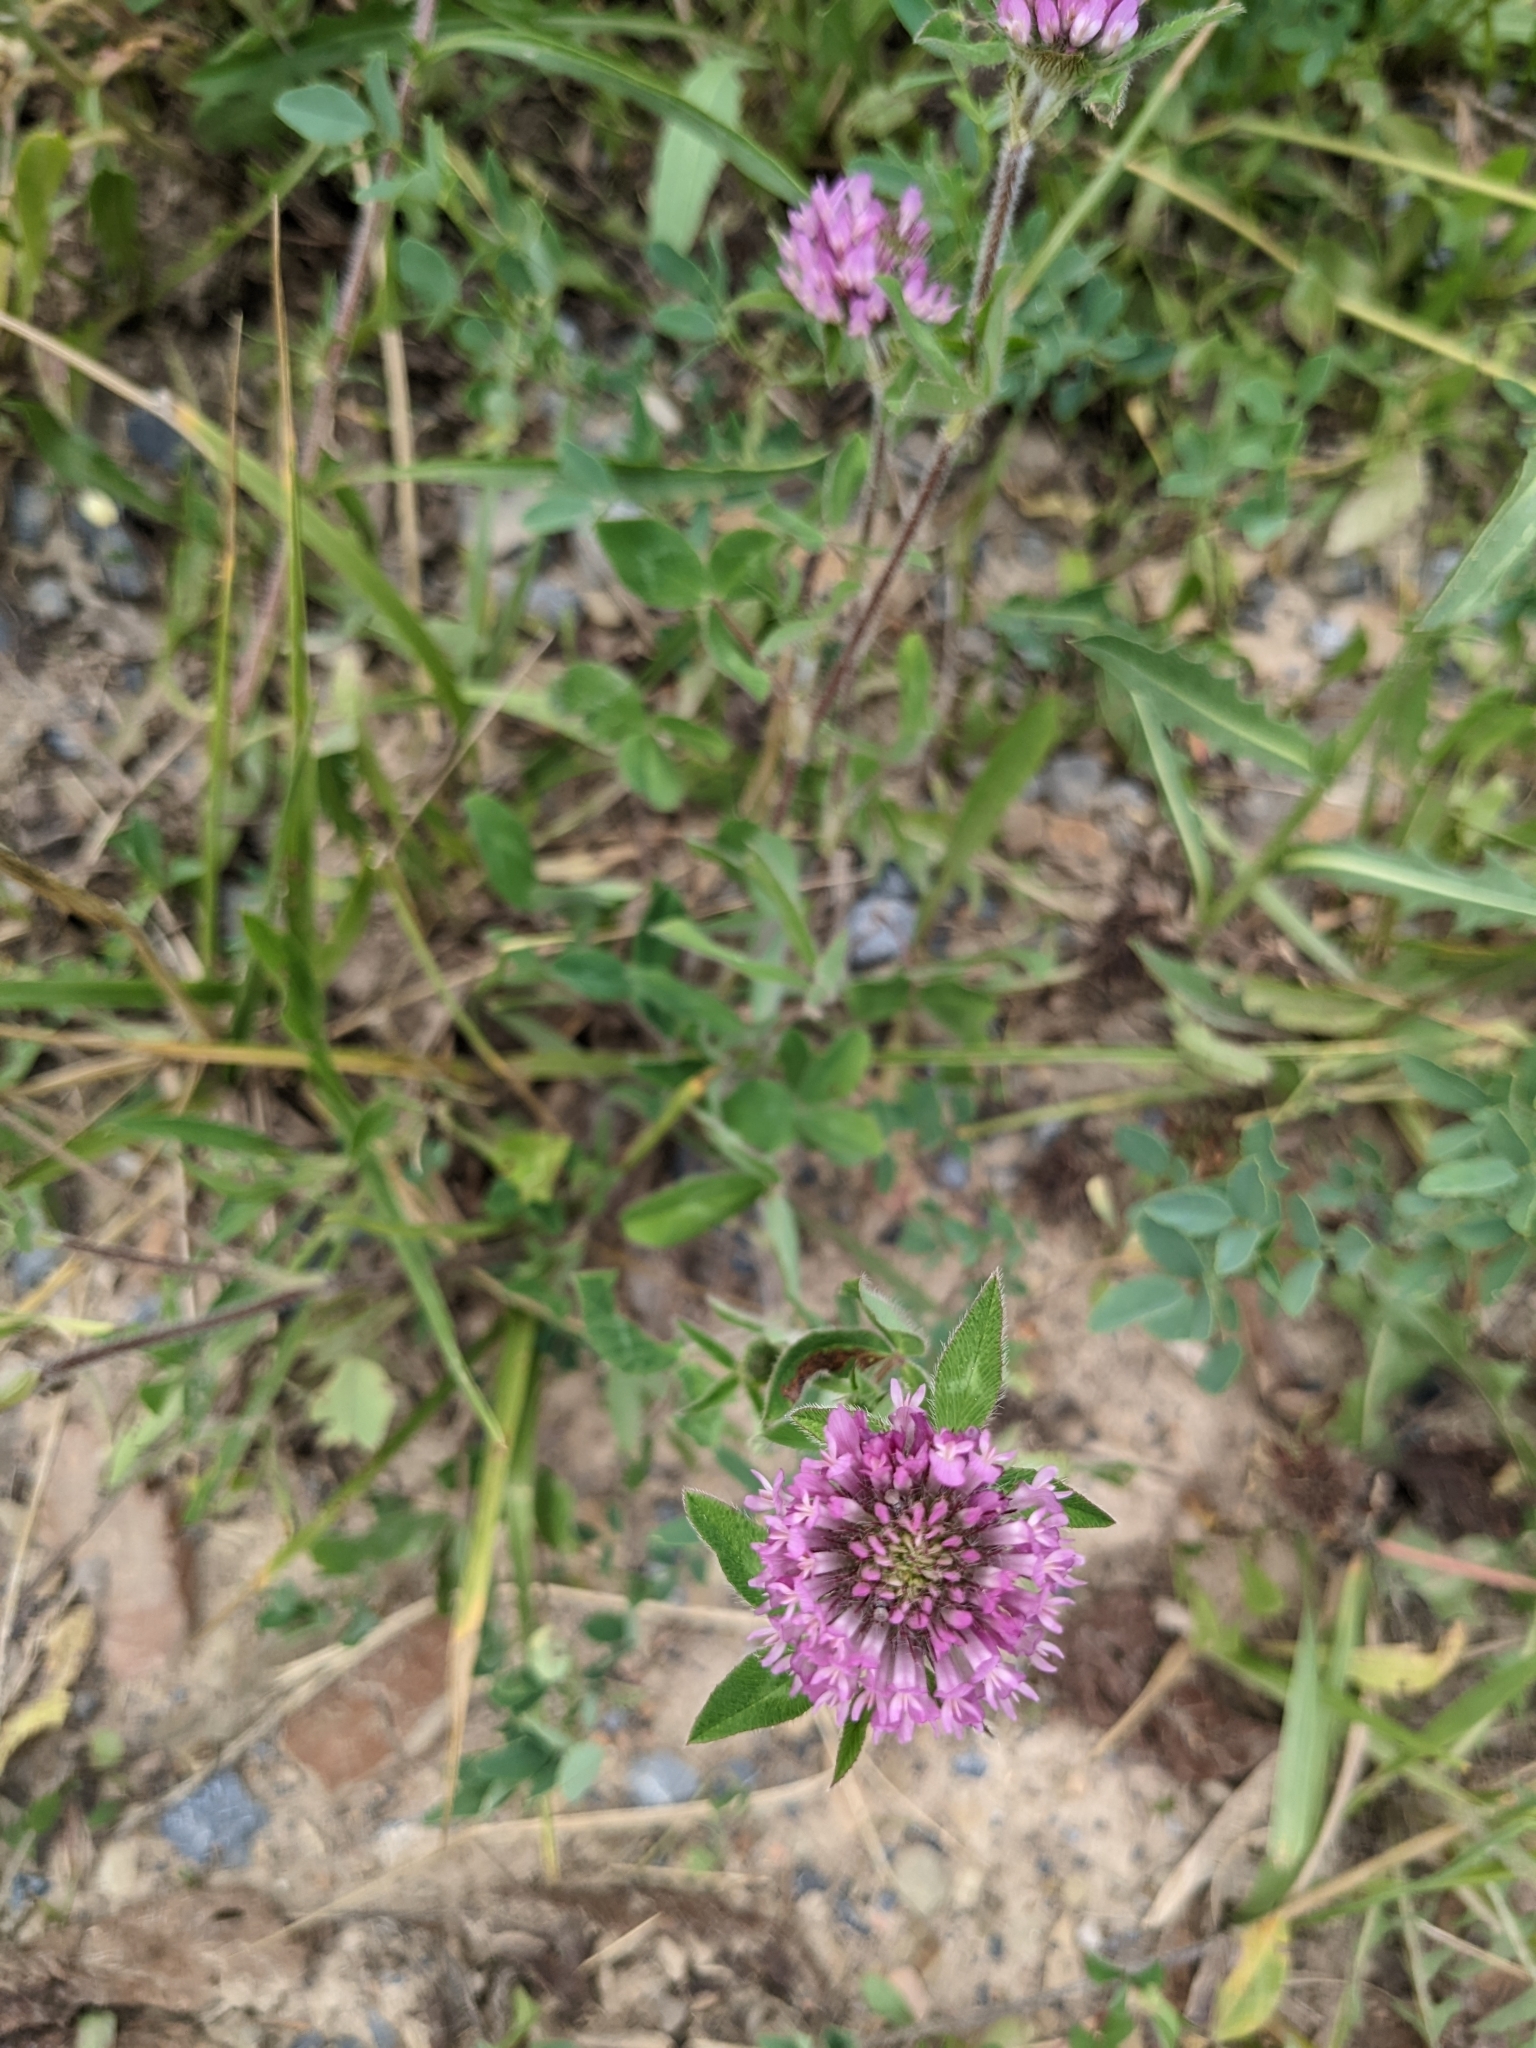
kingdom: Plantae
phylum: Tracheophyta
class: Magnoliopsida
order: Fabales
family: Fabaceae
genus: Trifolium
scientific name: Trifolium pratense
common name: Red clover
